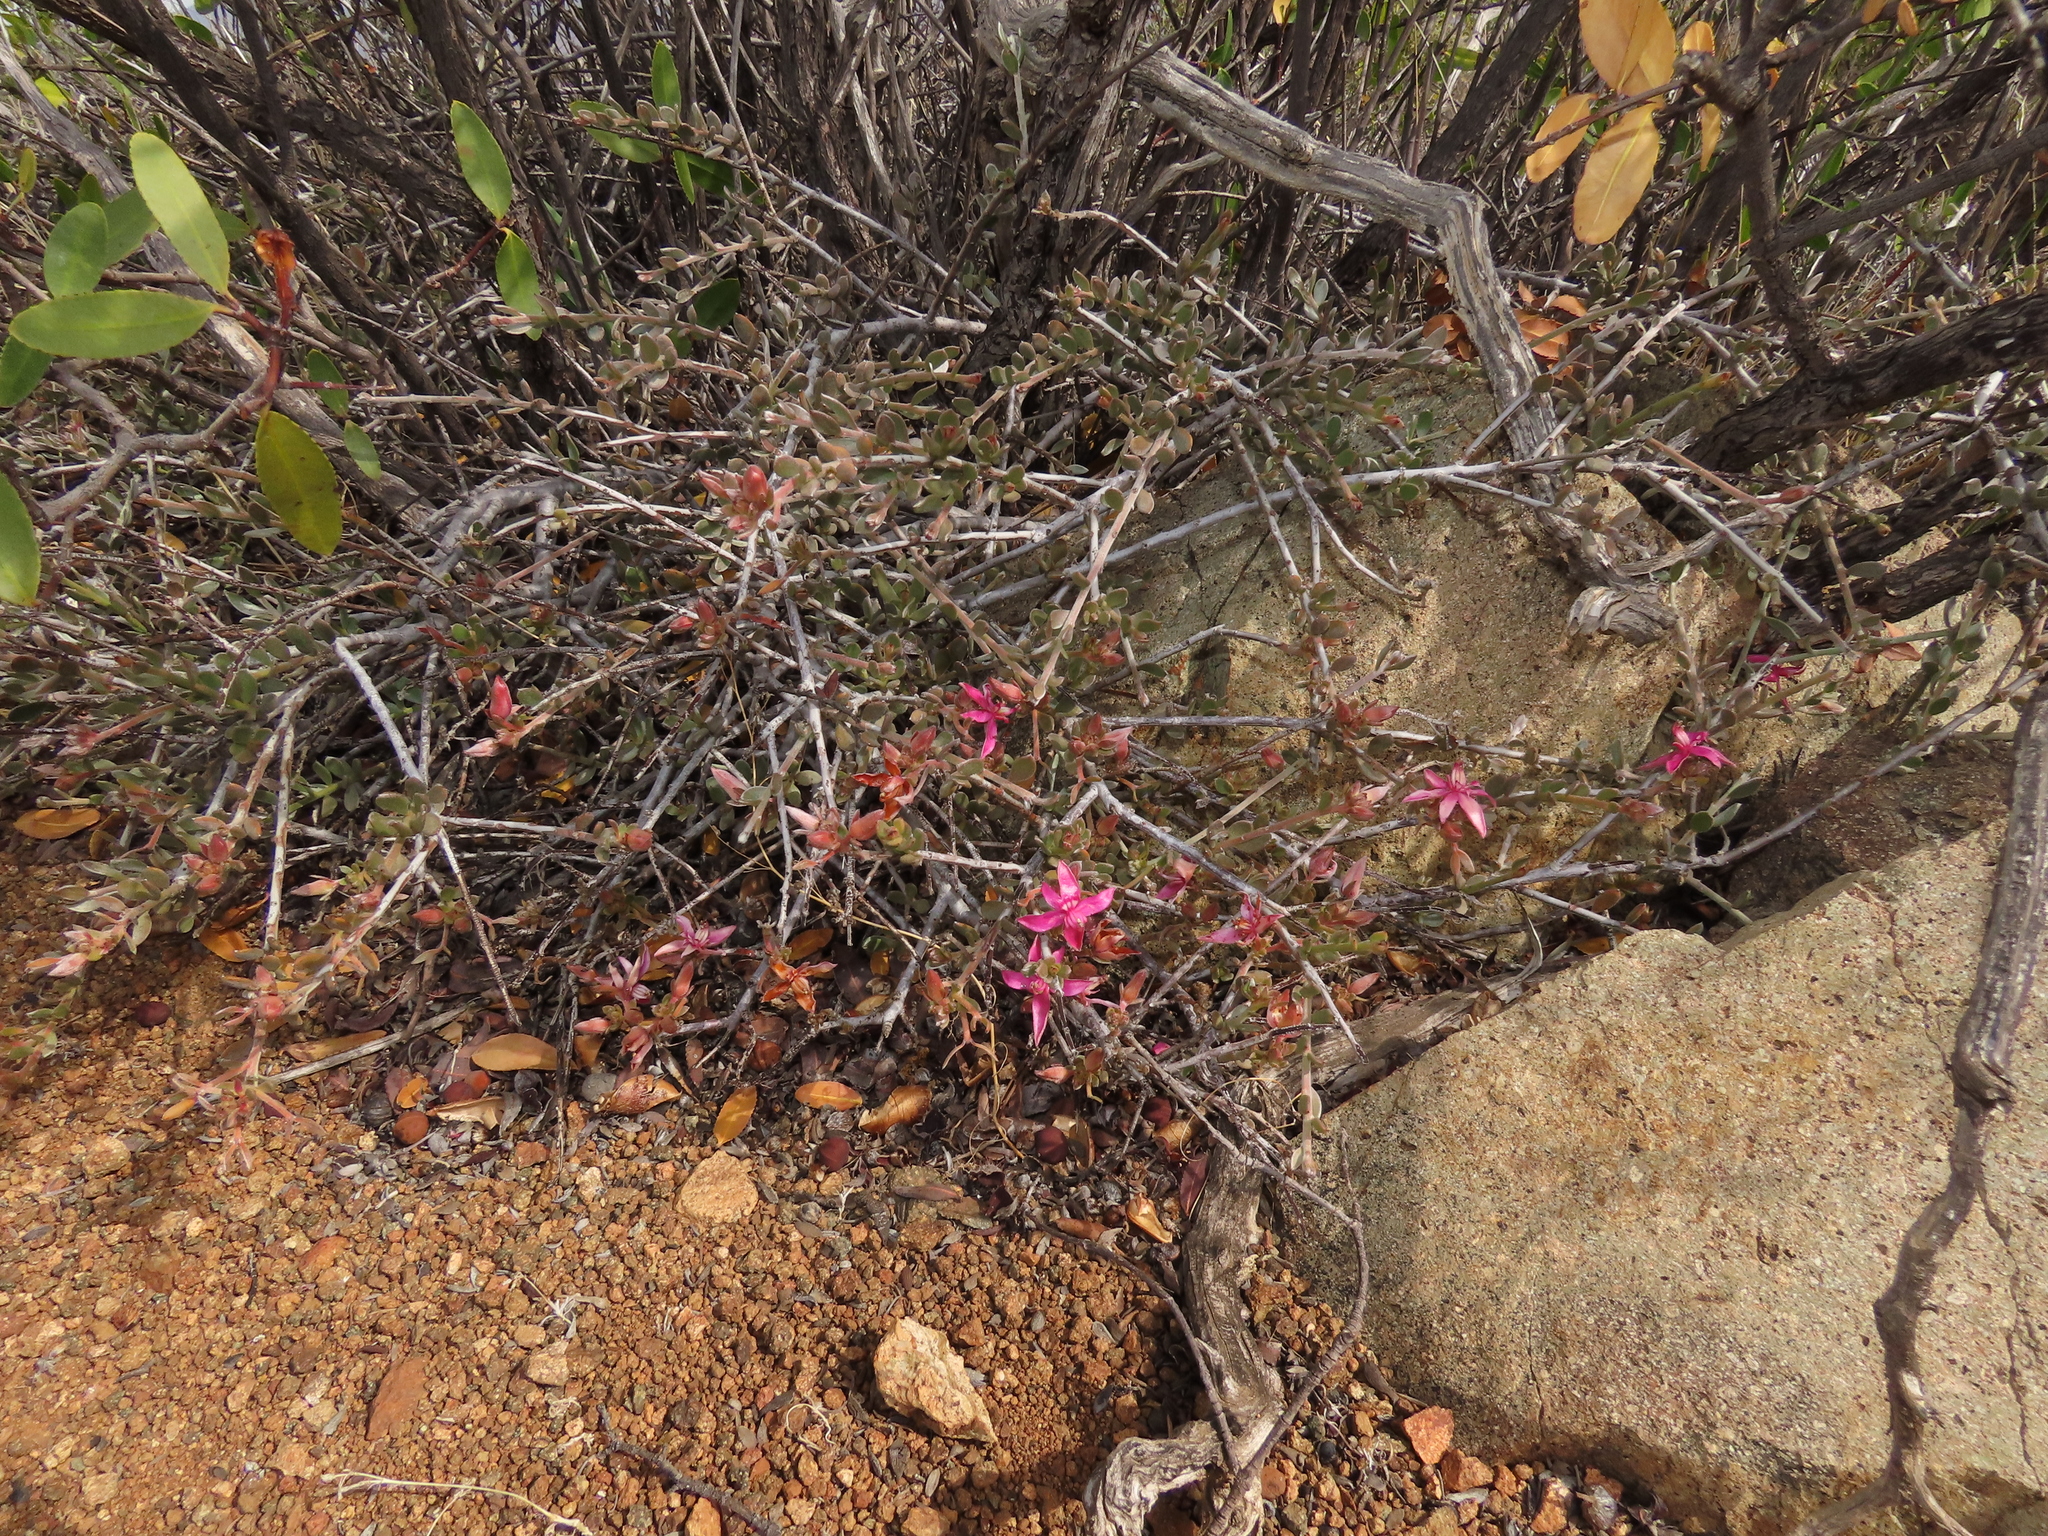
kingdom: Plantae
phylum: Tracheophyta
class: Magnoliopsida
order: Zygophyllales
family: Krameriaceae
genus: Krameria
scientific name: Krameria cistoidea
